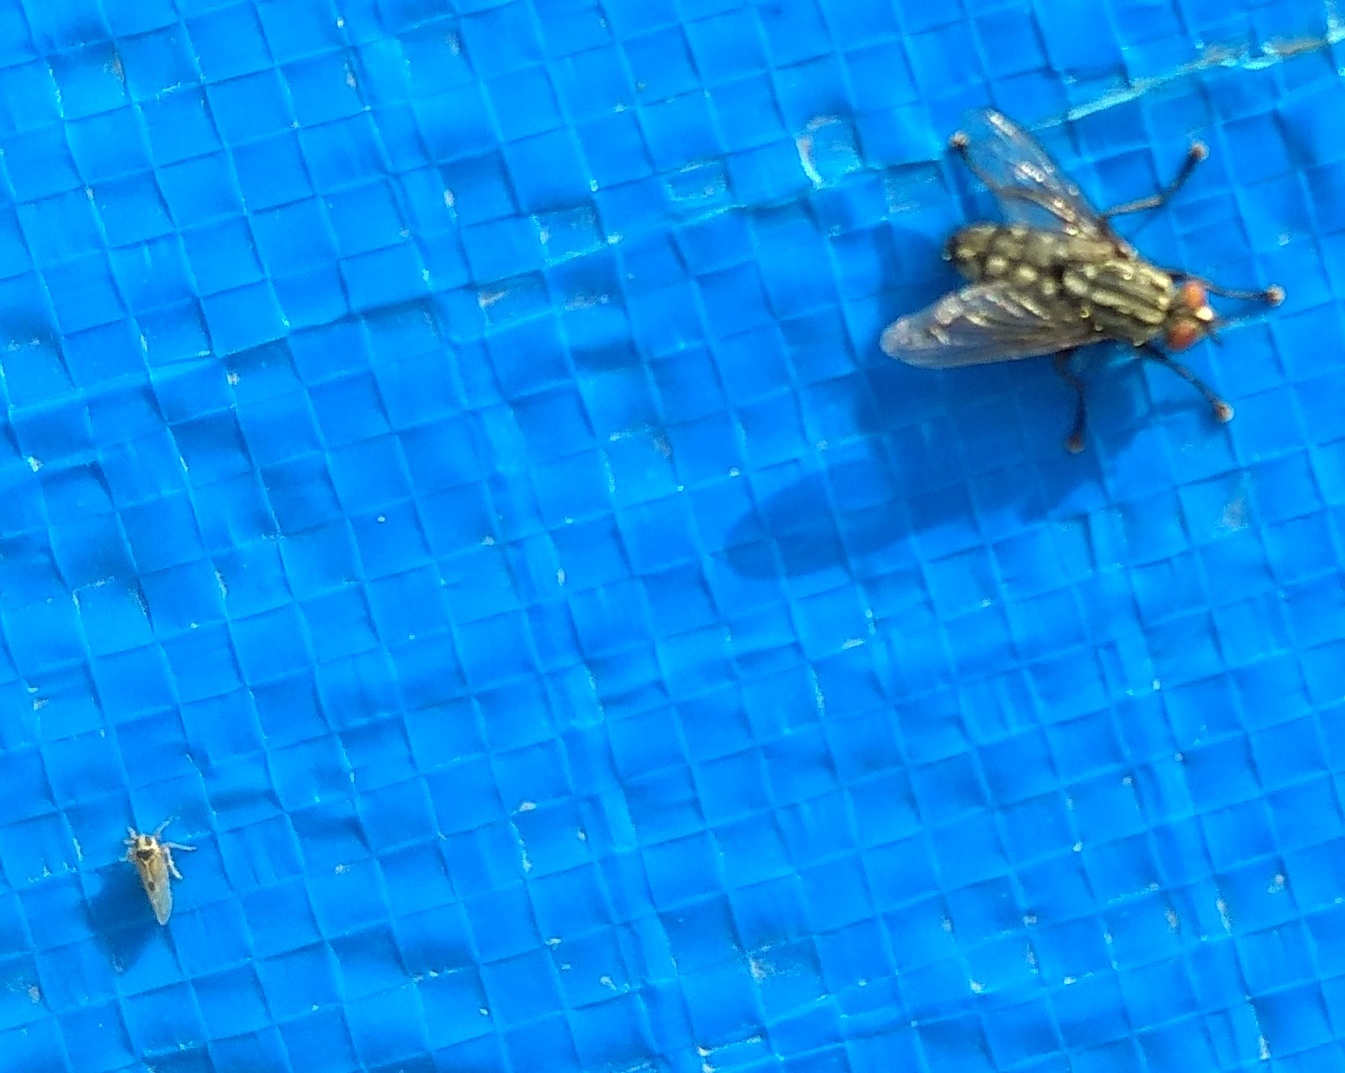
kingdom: Animalia
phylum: Arthropoda
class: Insecta
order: Hemiptera
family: Delphacidae
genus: Laodelphax
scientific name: Laodelphax striatellus
